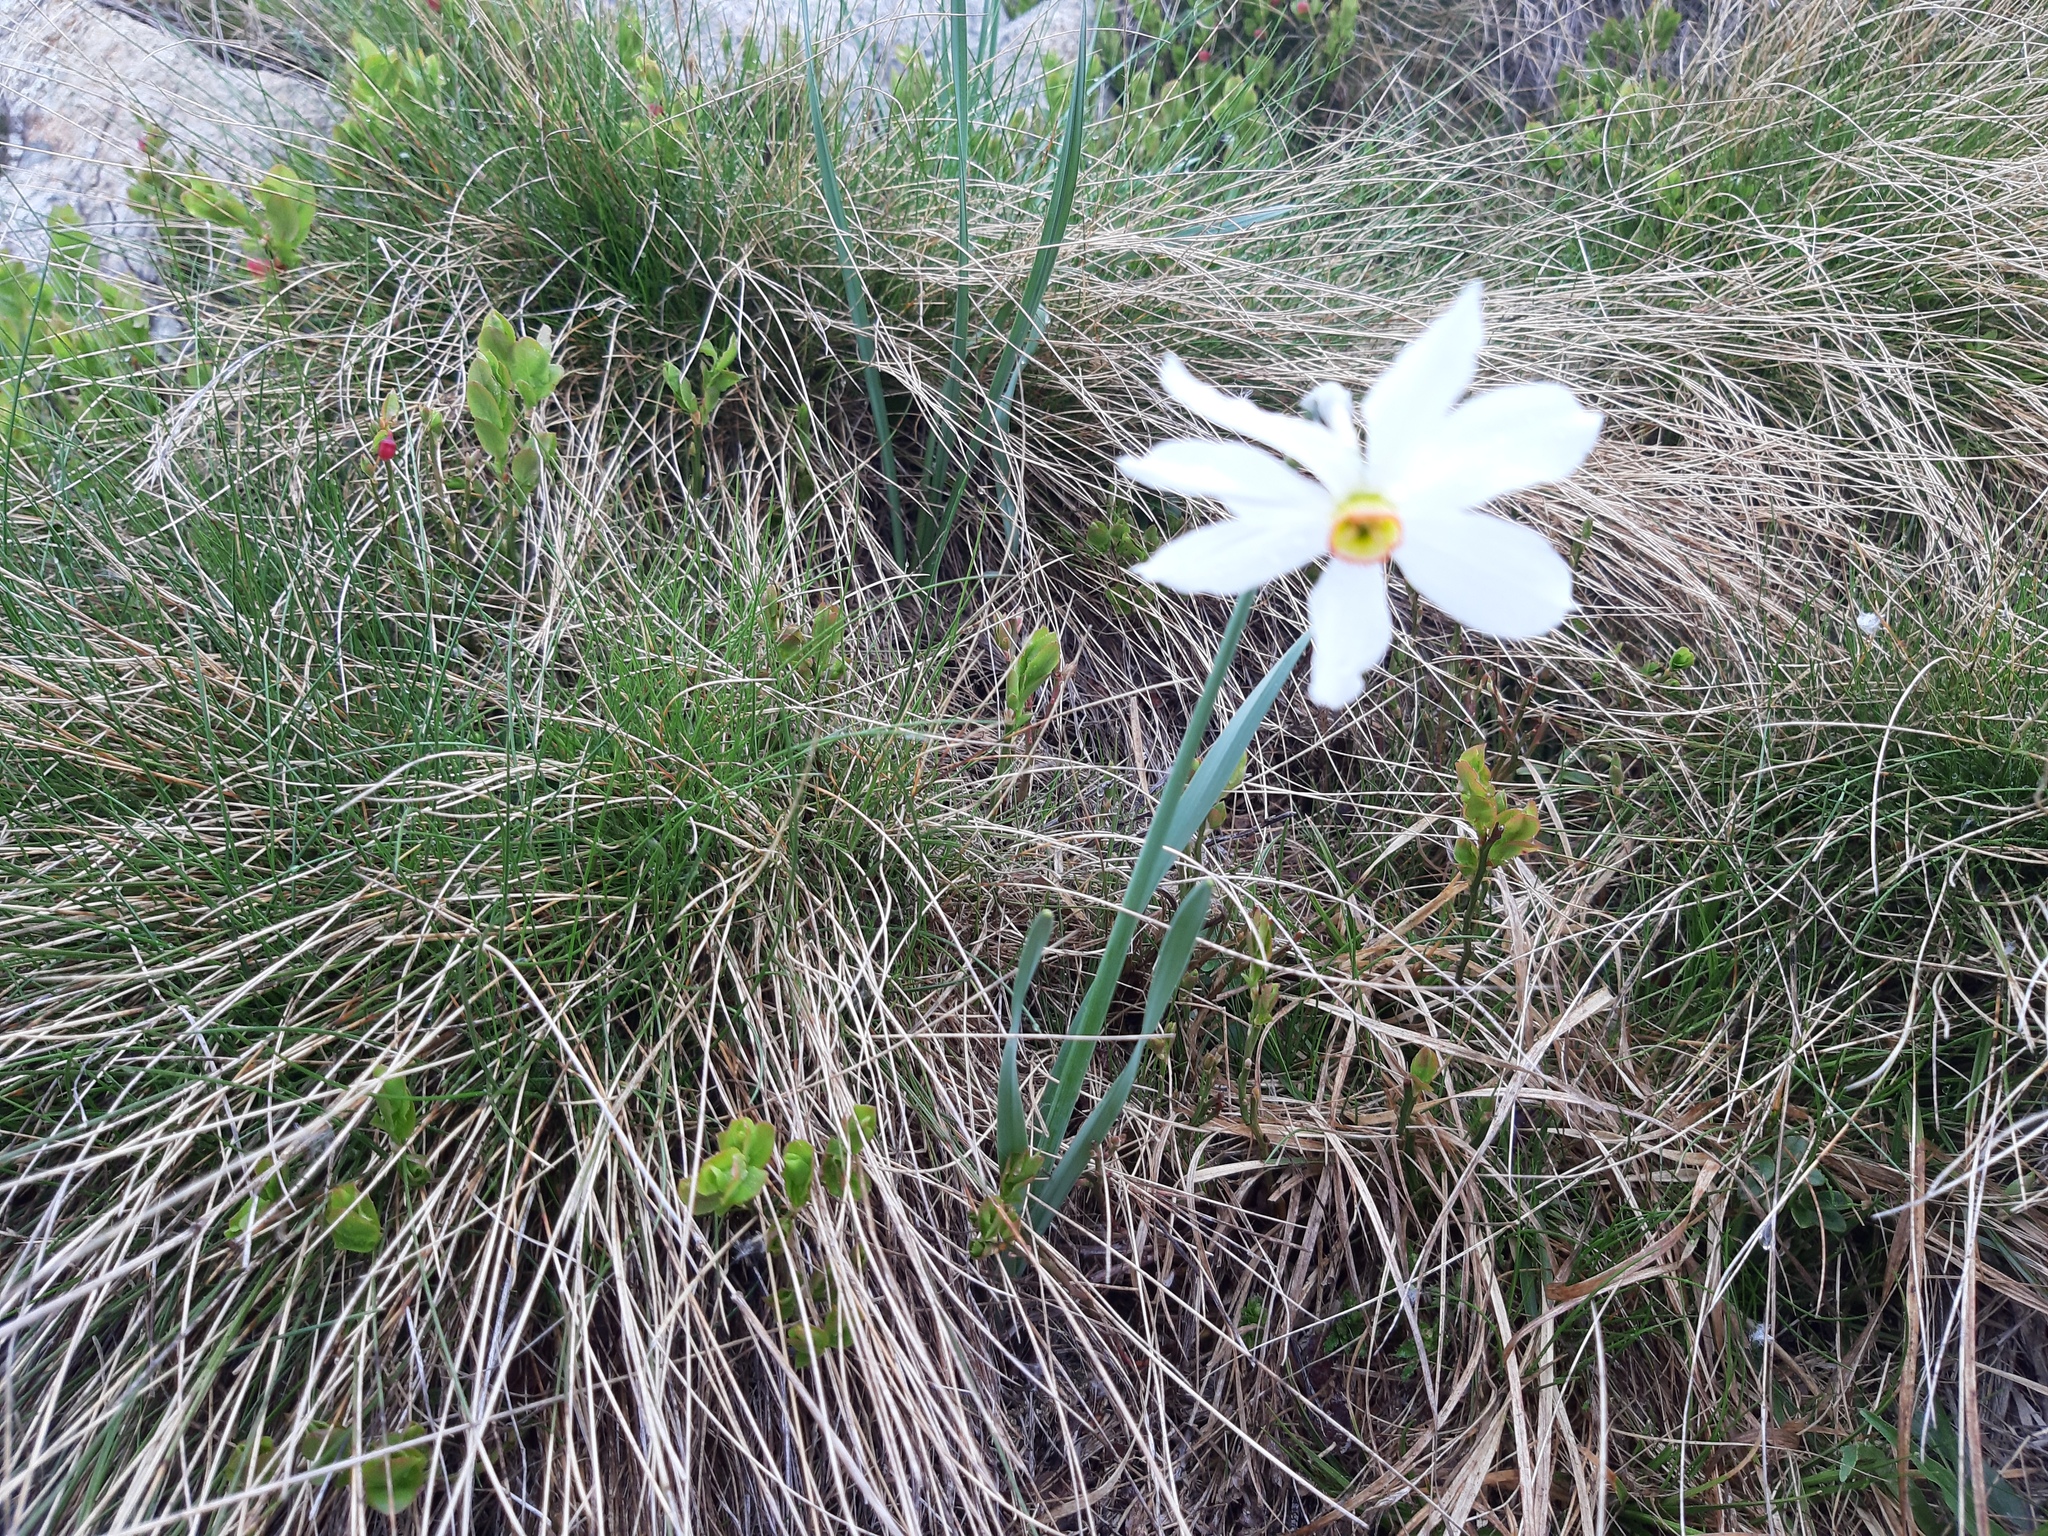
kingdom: Plantae
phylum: Tracheophyta
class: Liliopsida
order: Asparagales
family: Amaryllidaceae
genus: Narcissus
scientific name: Narcissus poeticus
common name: Pheasant's-eye daffodil
